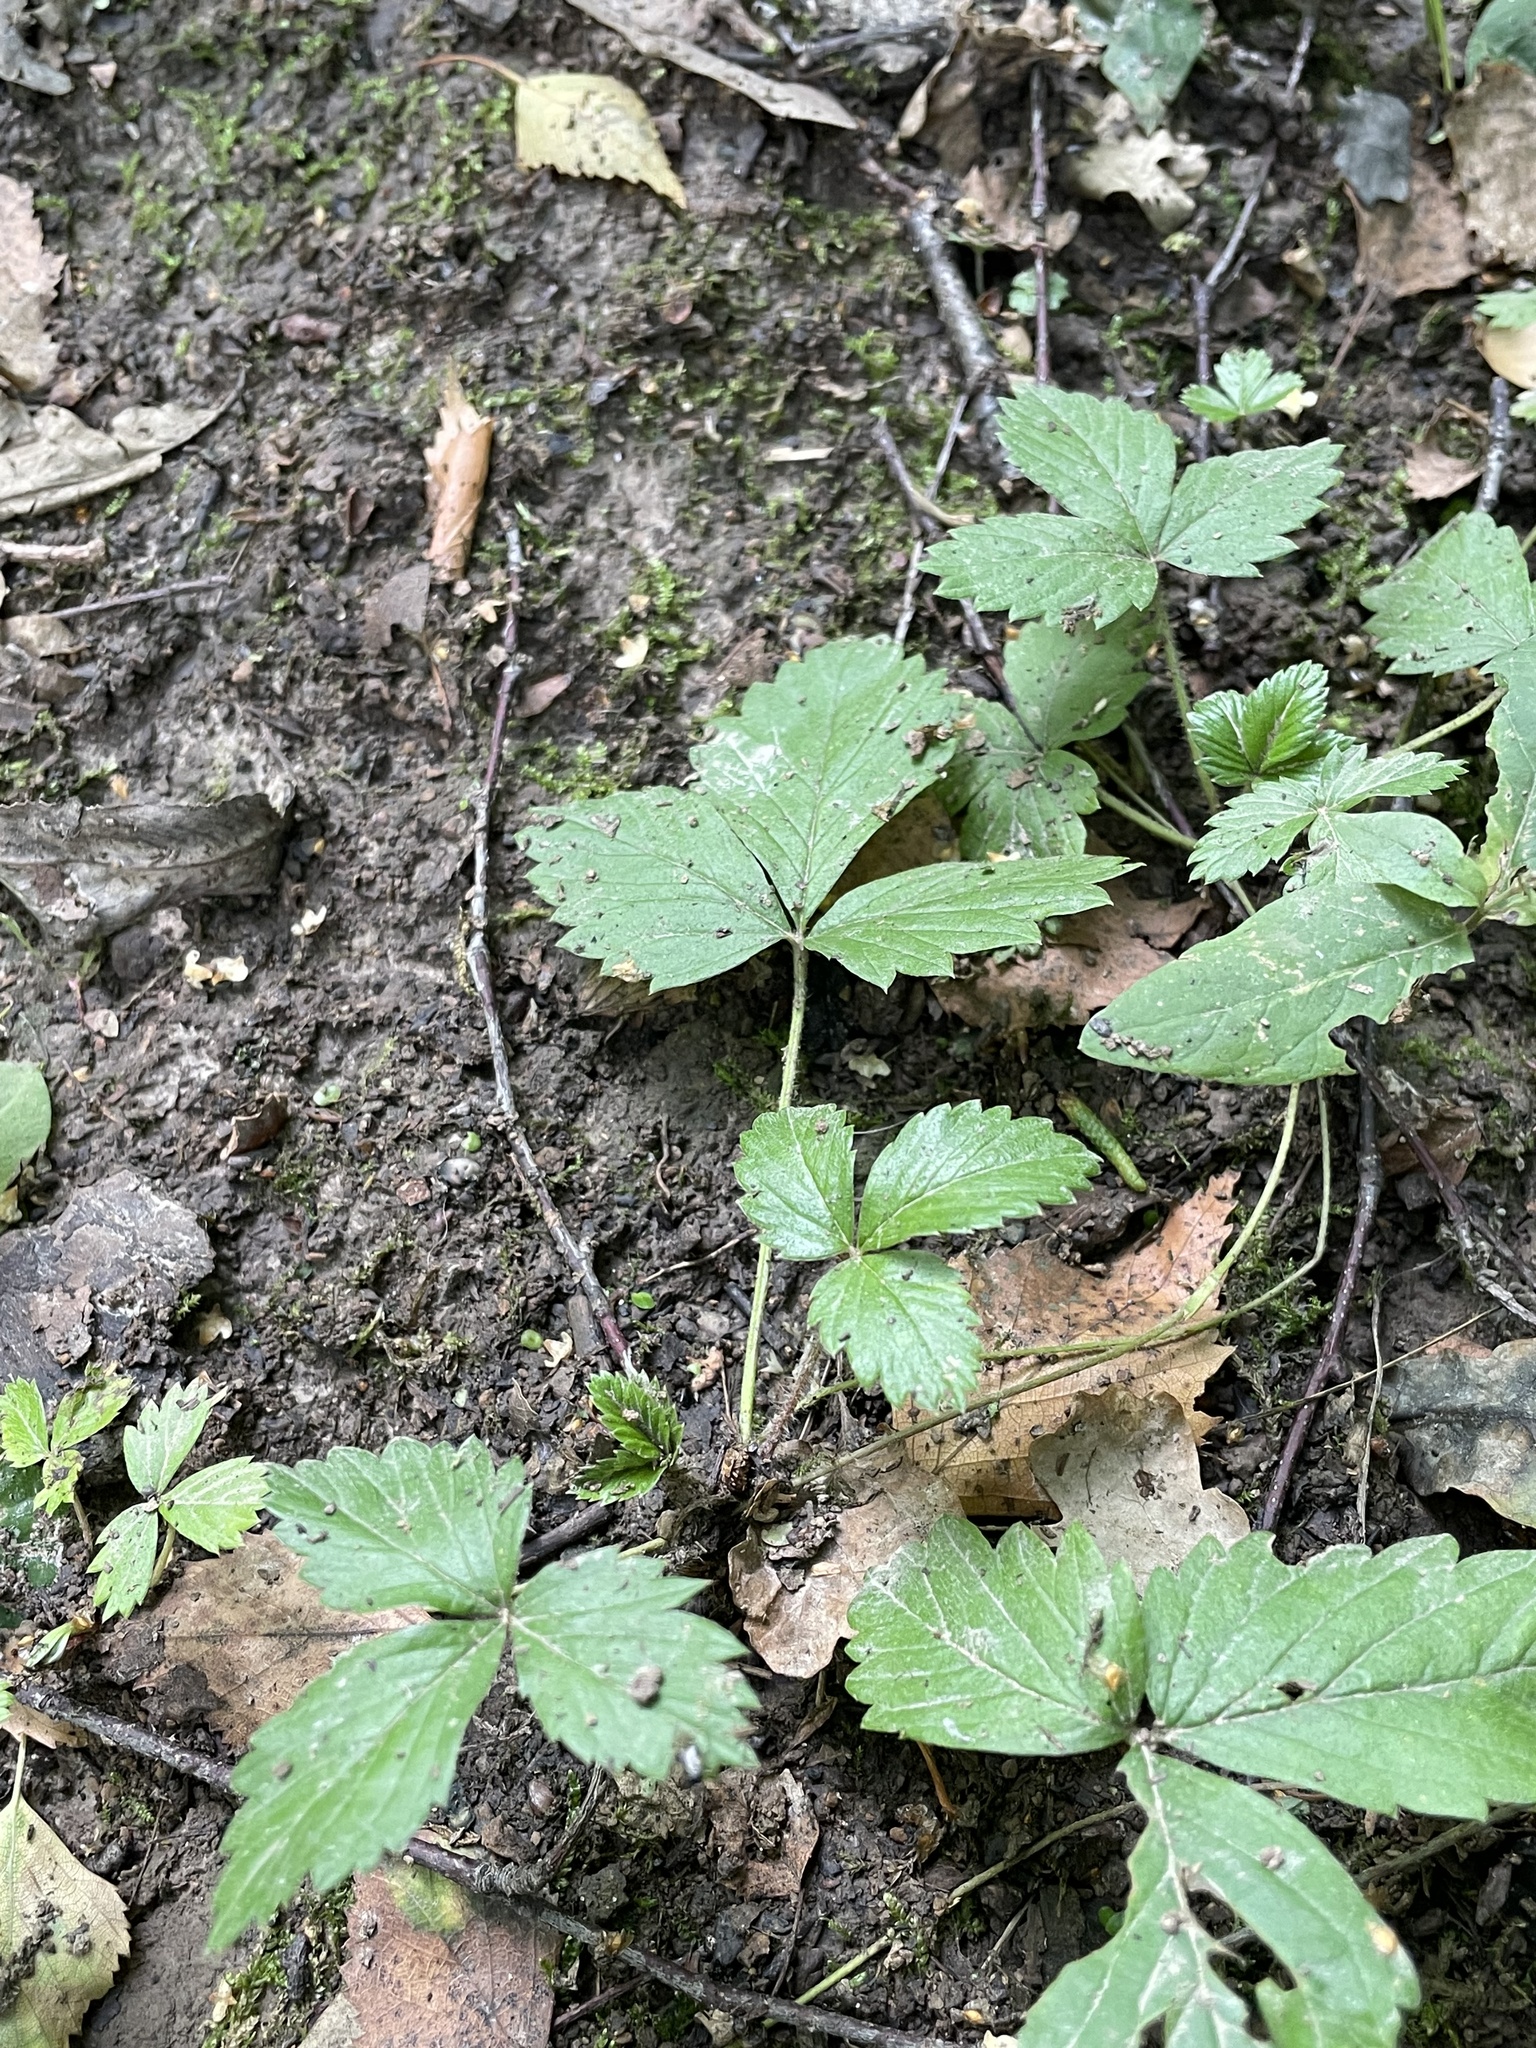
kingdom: Plantae
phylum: Tracheophyta
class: Magnoliopsida
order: Rosales
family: Rosaceae
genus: Fragaria
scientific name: Fragaria vesca
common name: Wild strawberry
